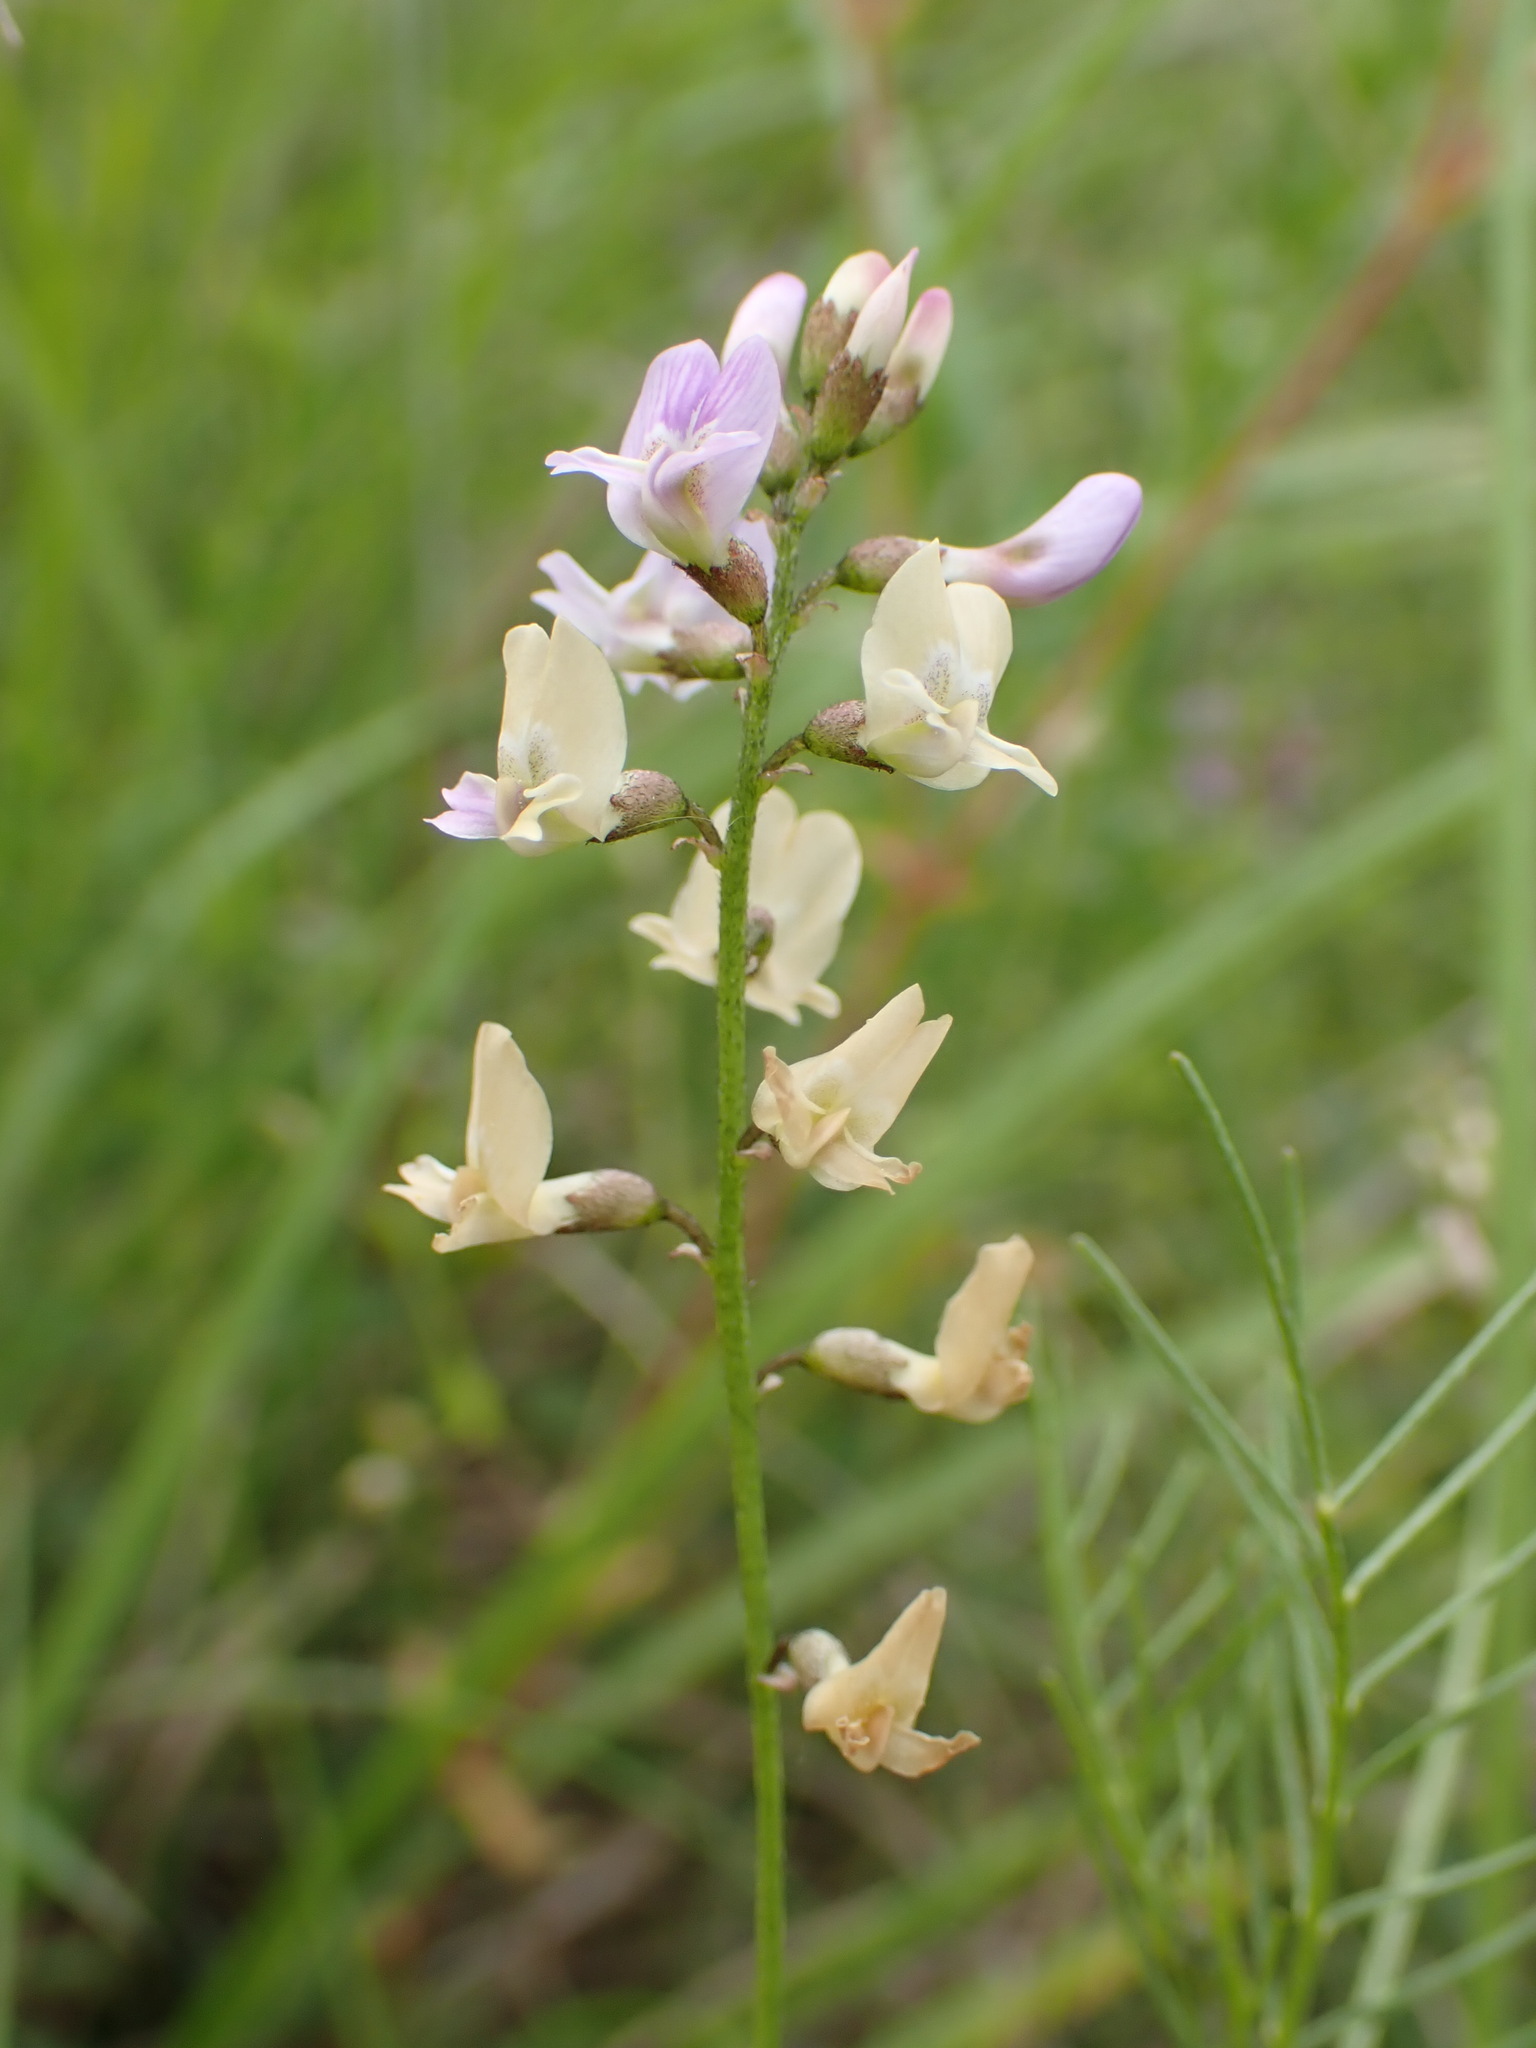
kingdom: Plantae
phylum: Tracheophyta
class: Magnoliopsida
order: Fabales
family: Fabaceae
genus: Astragalus
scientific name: Astragalus austriacus
